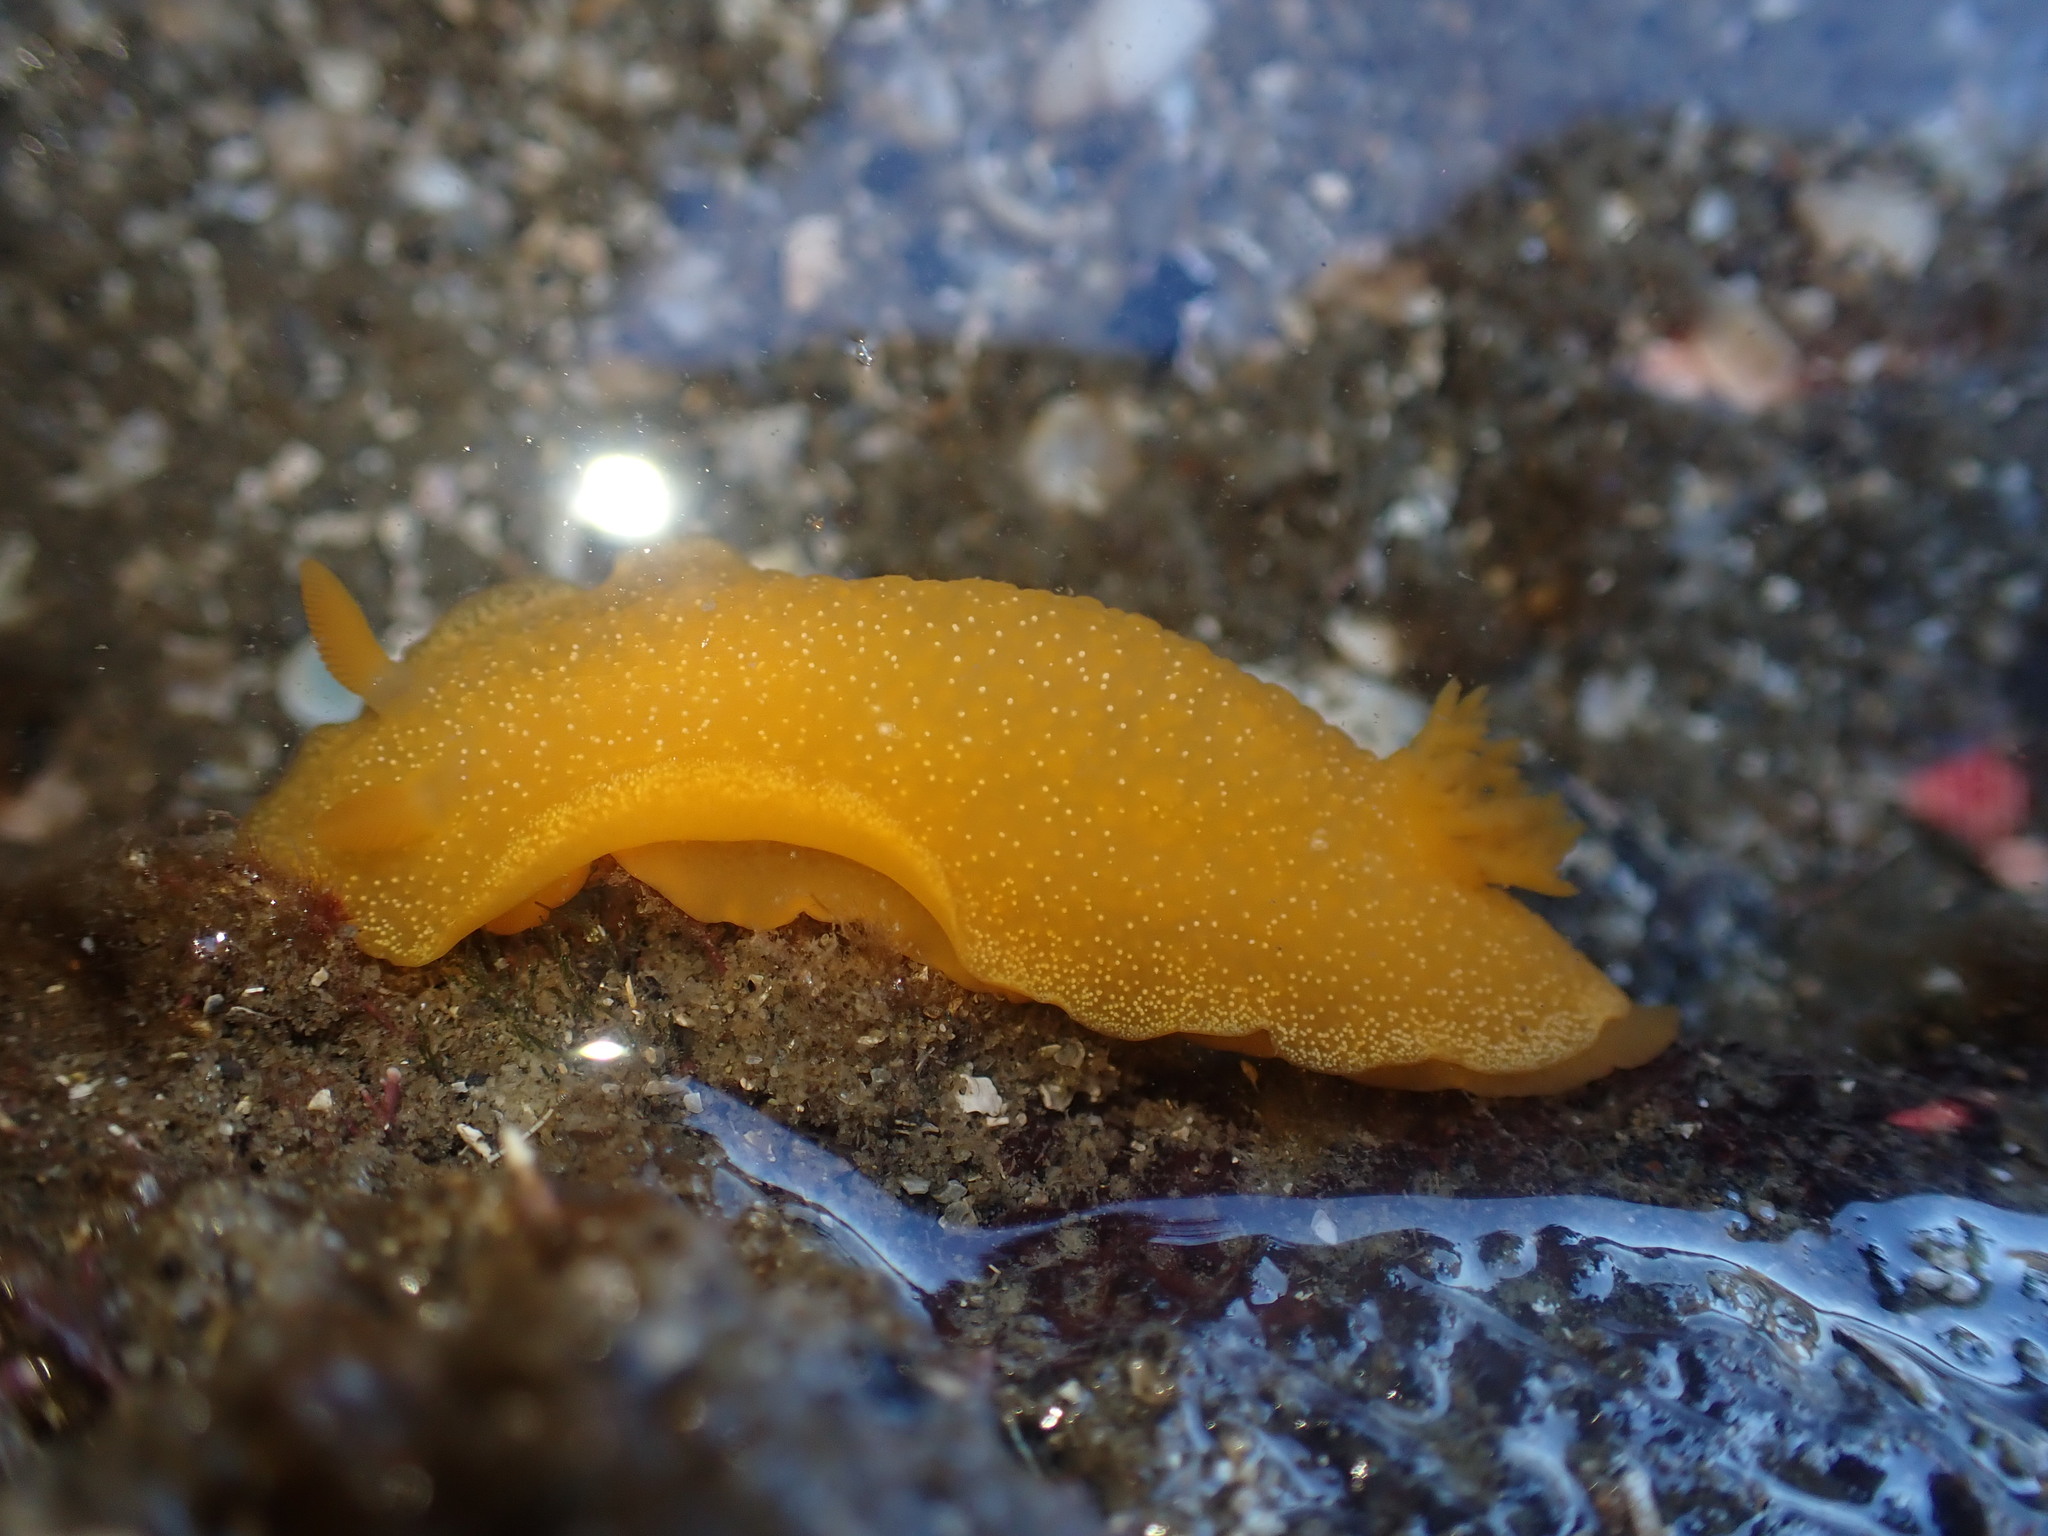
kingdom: Animalia
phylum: Mollusca
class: Gastropoda
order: Nudibranchia
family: Dendrodorididae
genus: Dendrodoris
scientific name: Dendrodoris citrina
